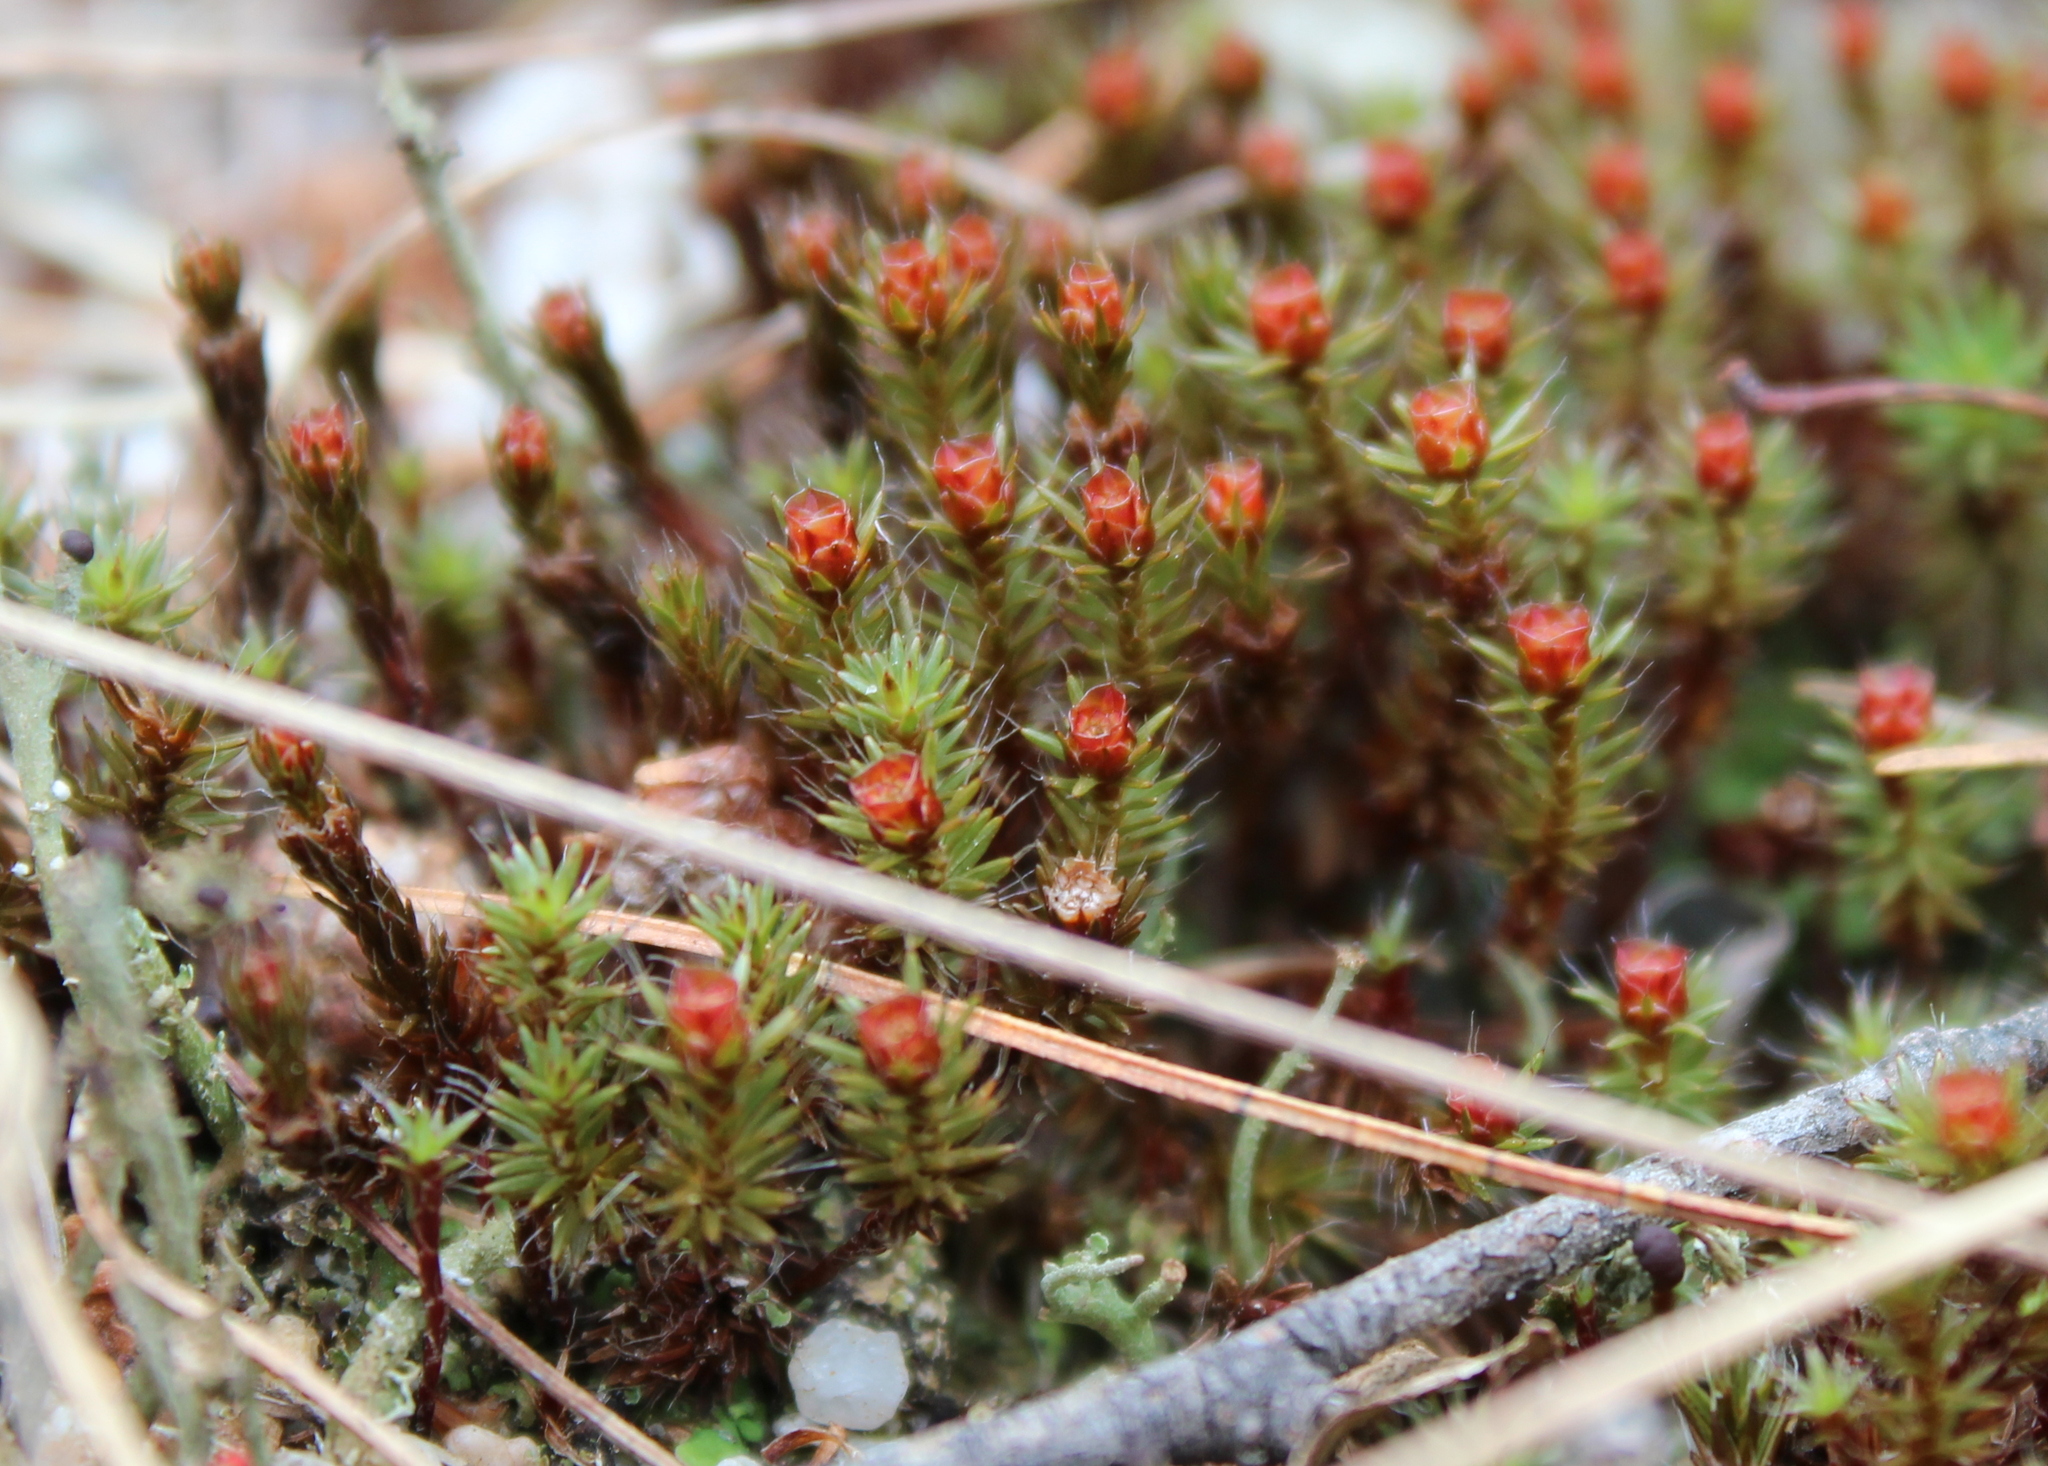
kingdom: Plantae
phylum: Bryophyta
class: Polytrichopsida
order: Polytrichales
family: Polytrichaceae
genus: Polytrichum
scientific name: Polytrichum piliferum
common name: Bristly haircap
